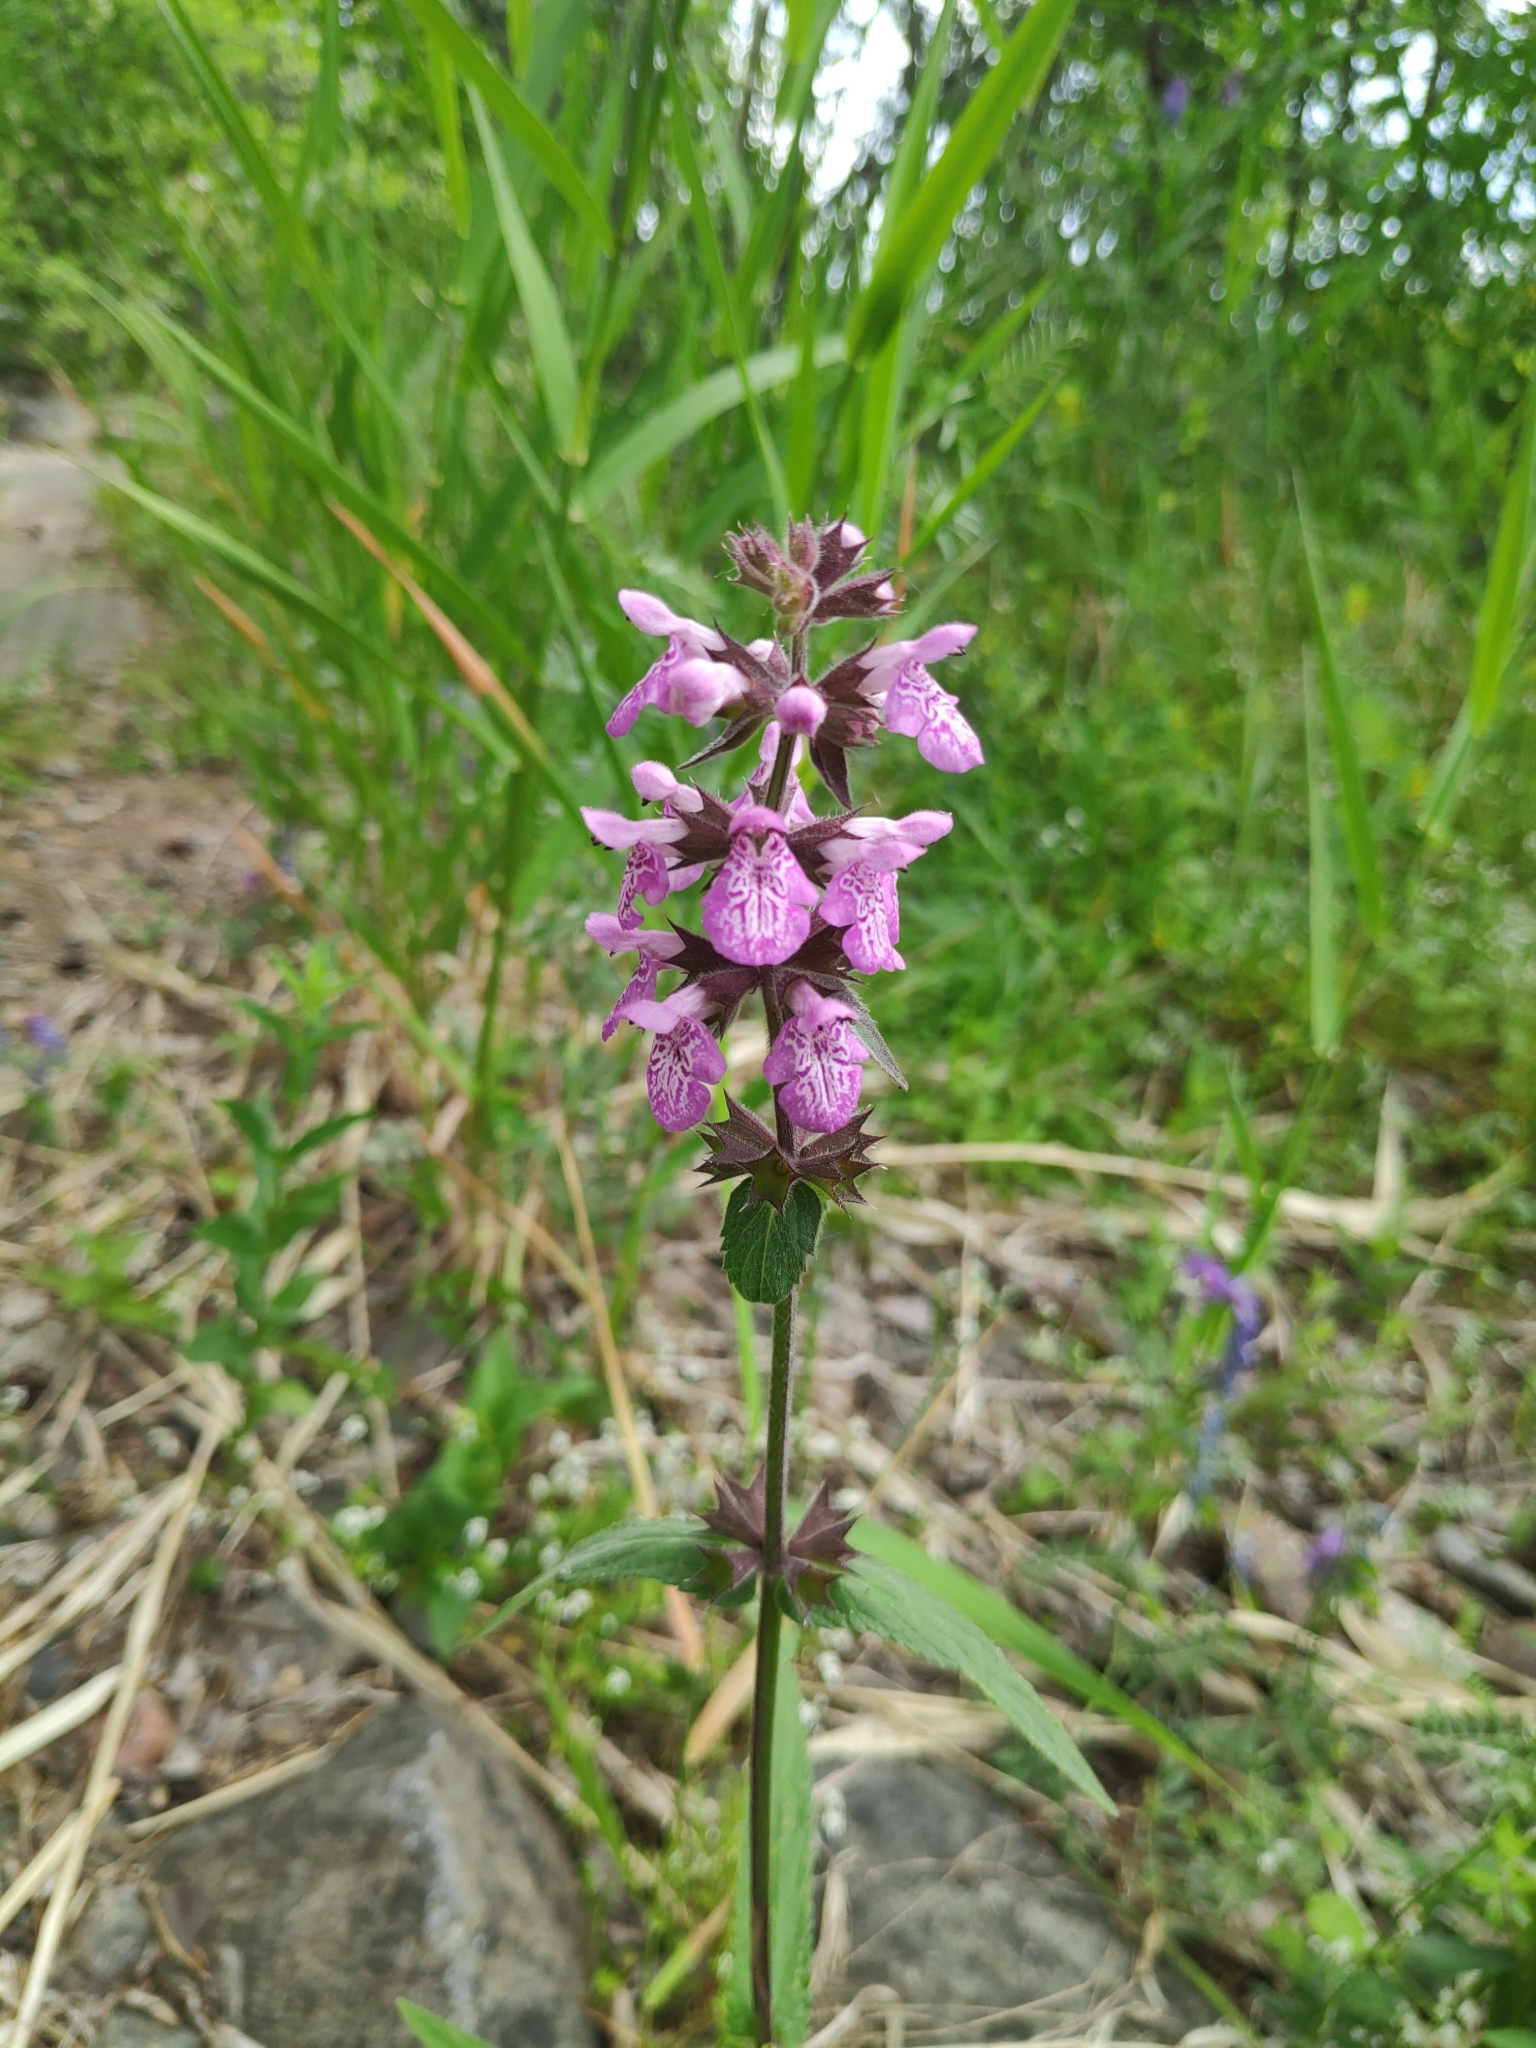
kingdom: Plantae
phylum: Tracheophyta
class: Magnoliopsida
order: Lamiales
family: Lamiaceae
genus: Stachys
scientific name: Stachys palustris
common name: Marsh woundwort
